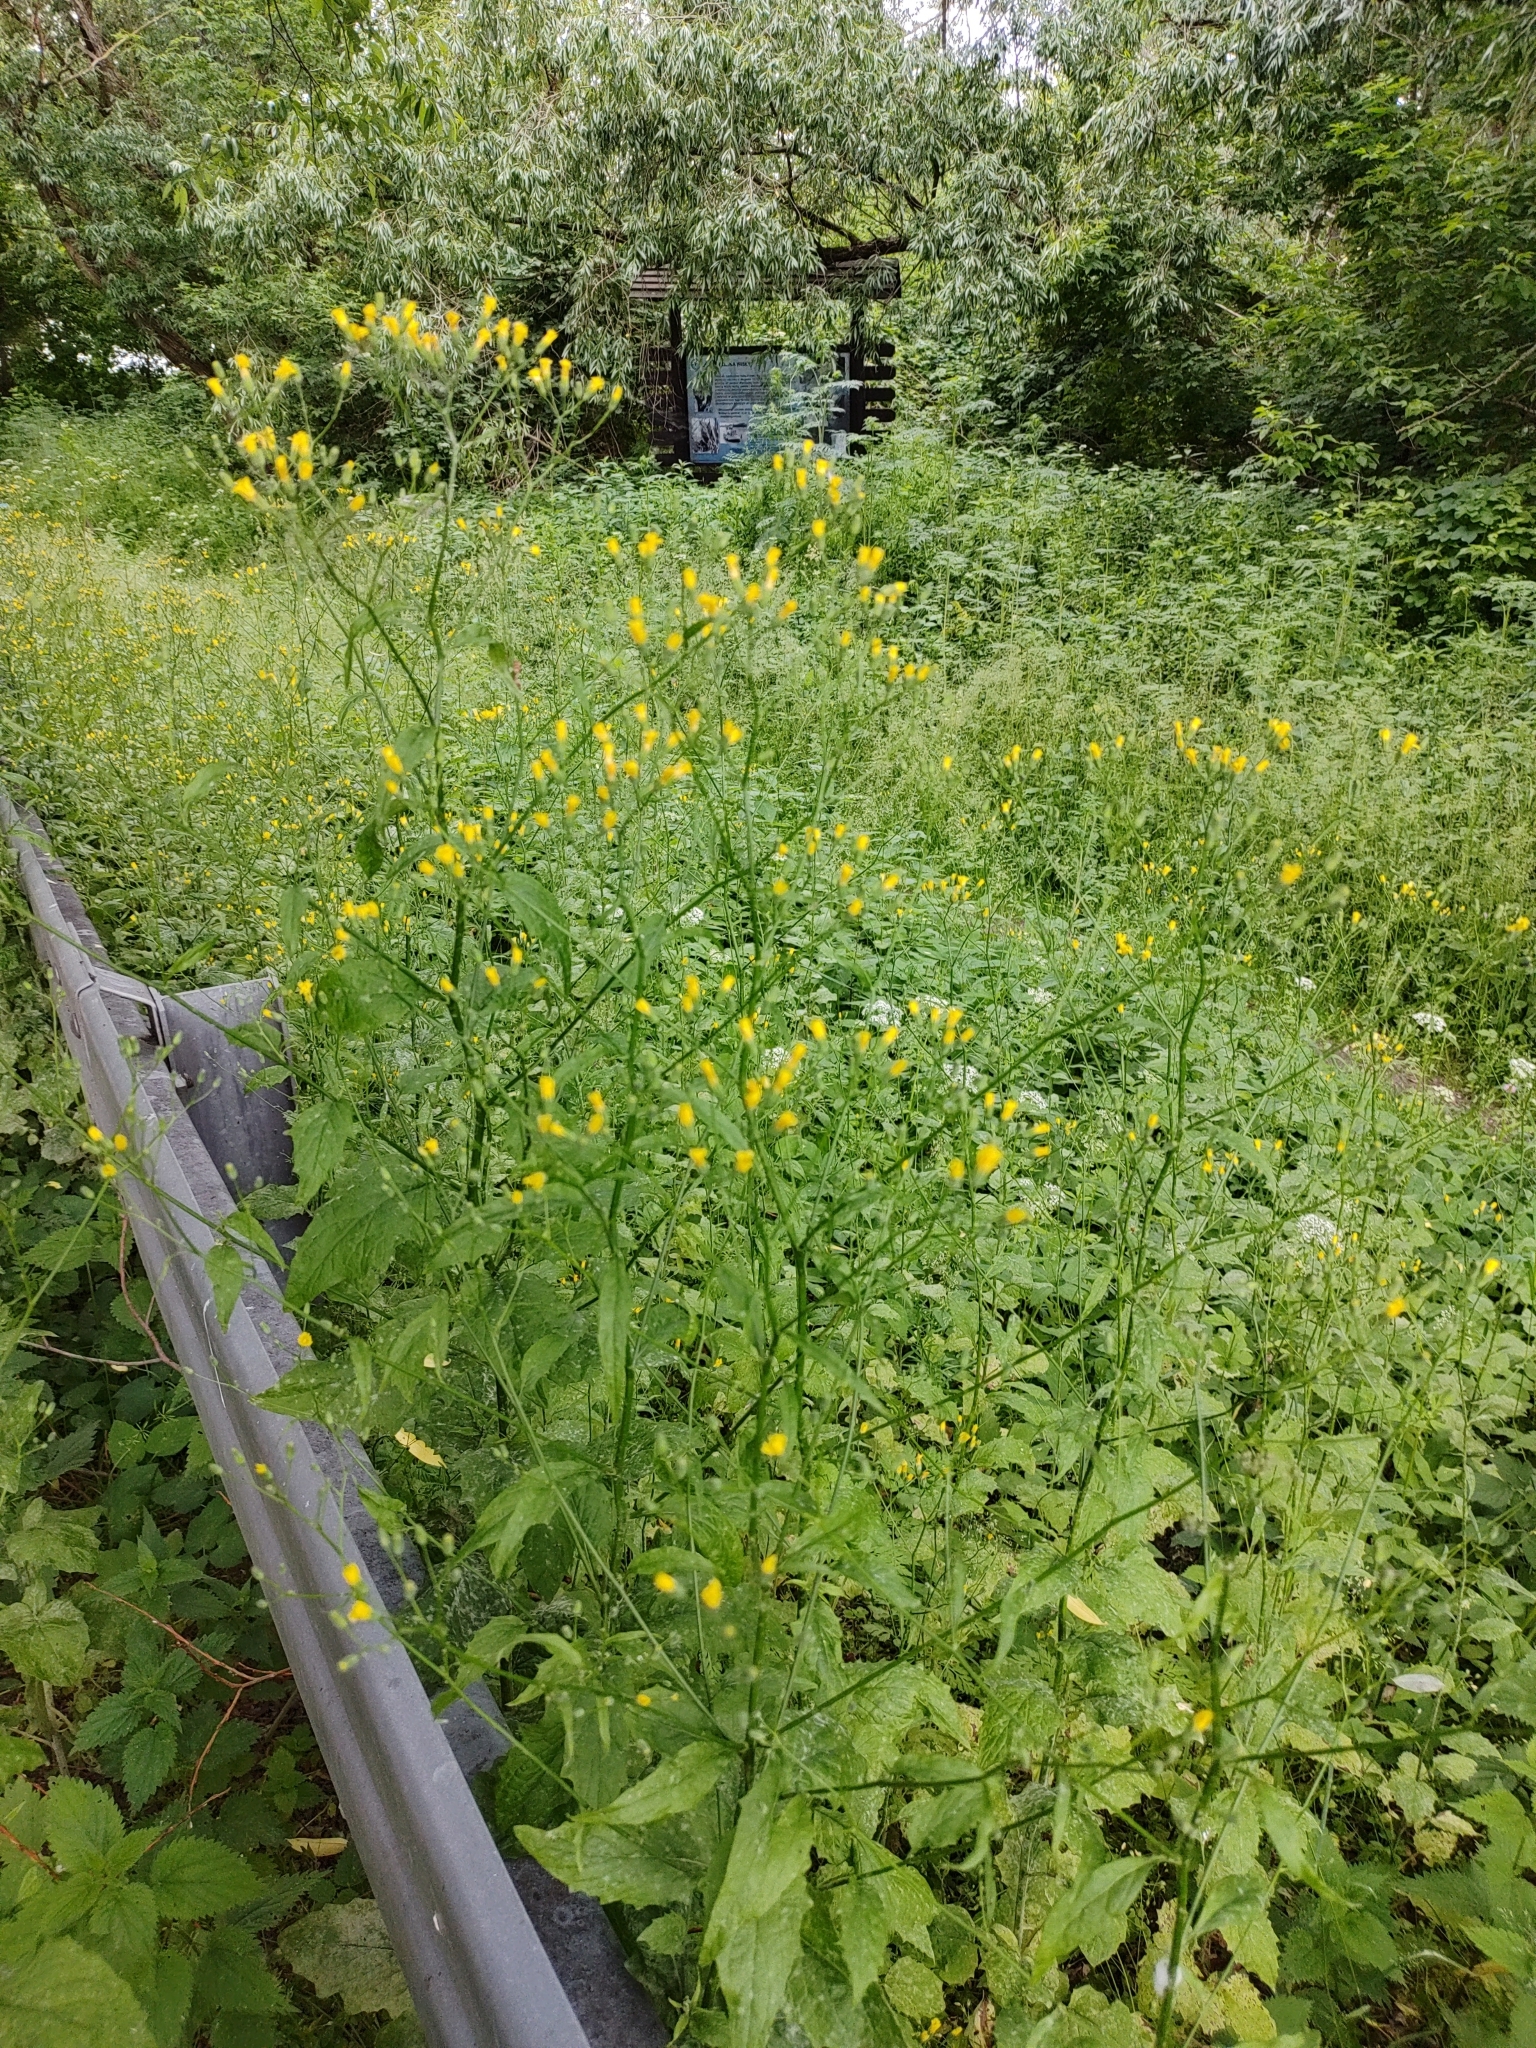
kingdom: Plantae
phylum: Tracheophyta
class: Magnoliopsida
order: Asterales
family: Asteraceae
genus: Lapsana
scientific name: Lapsana communis
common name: Nipplewort
